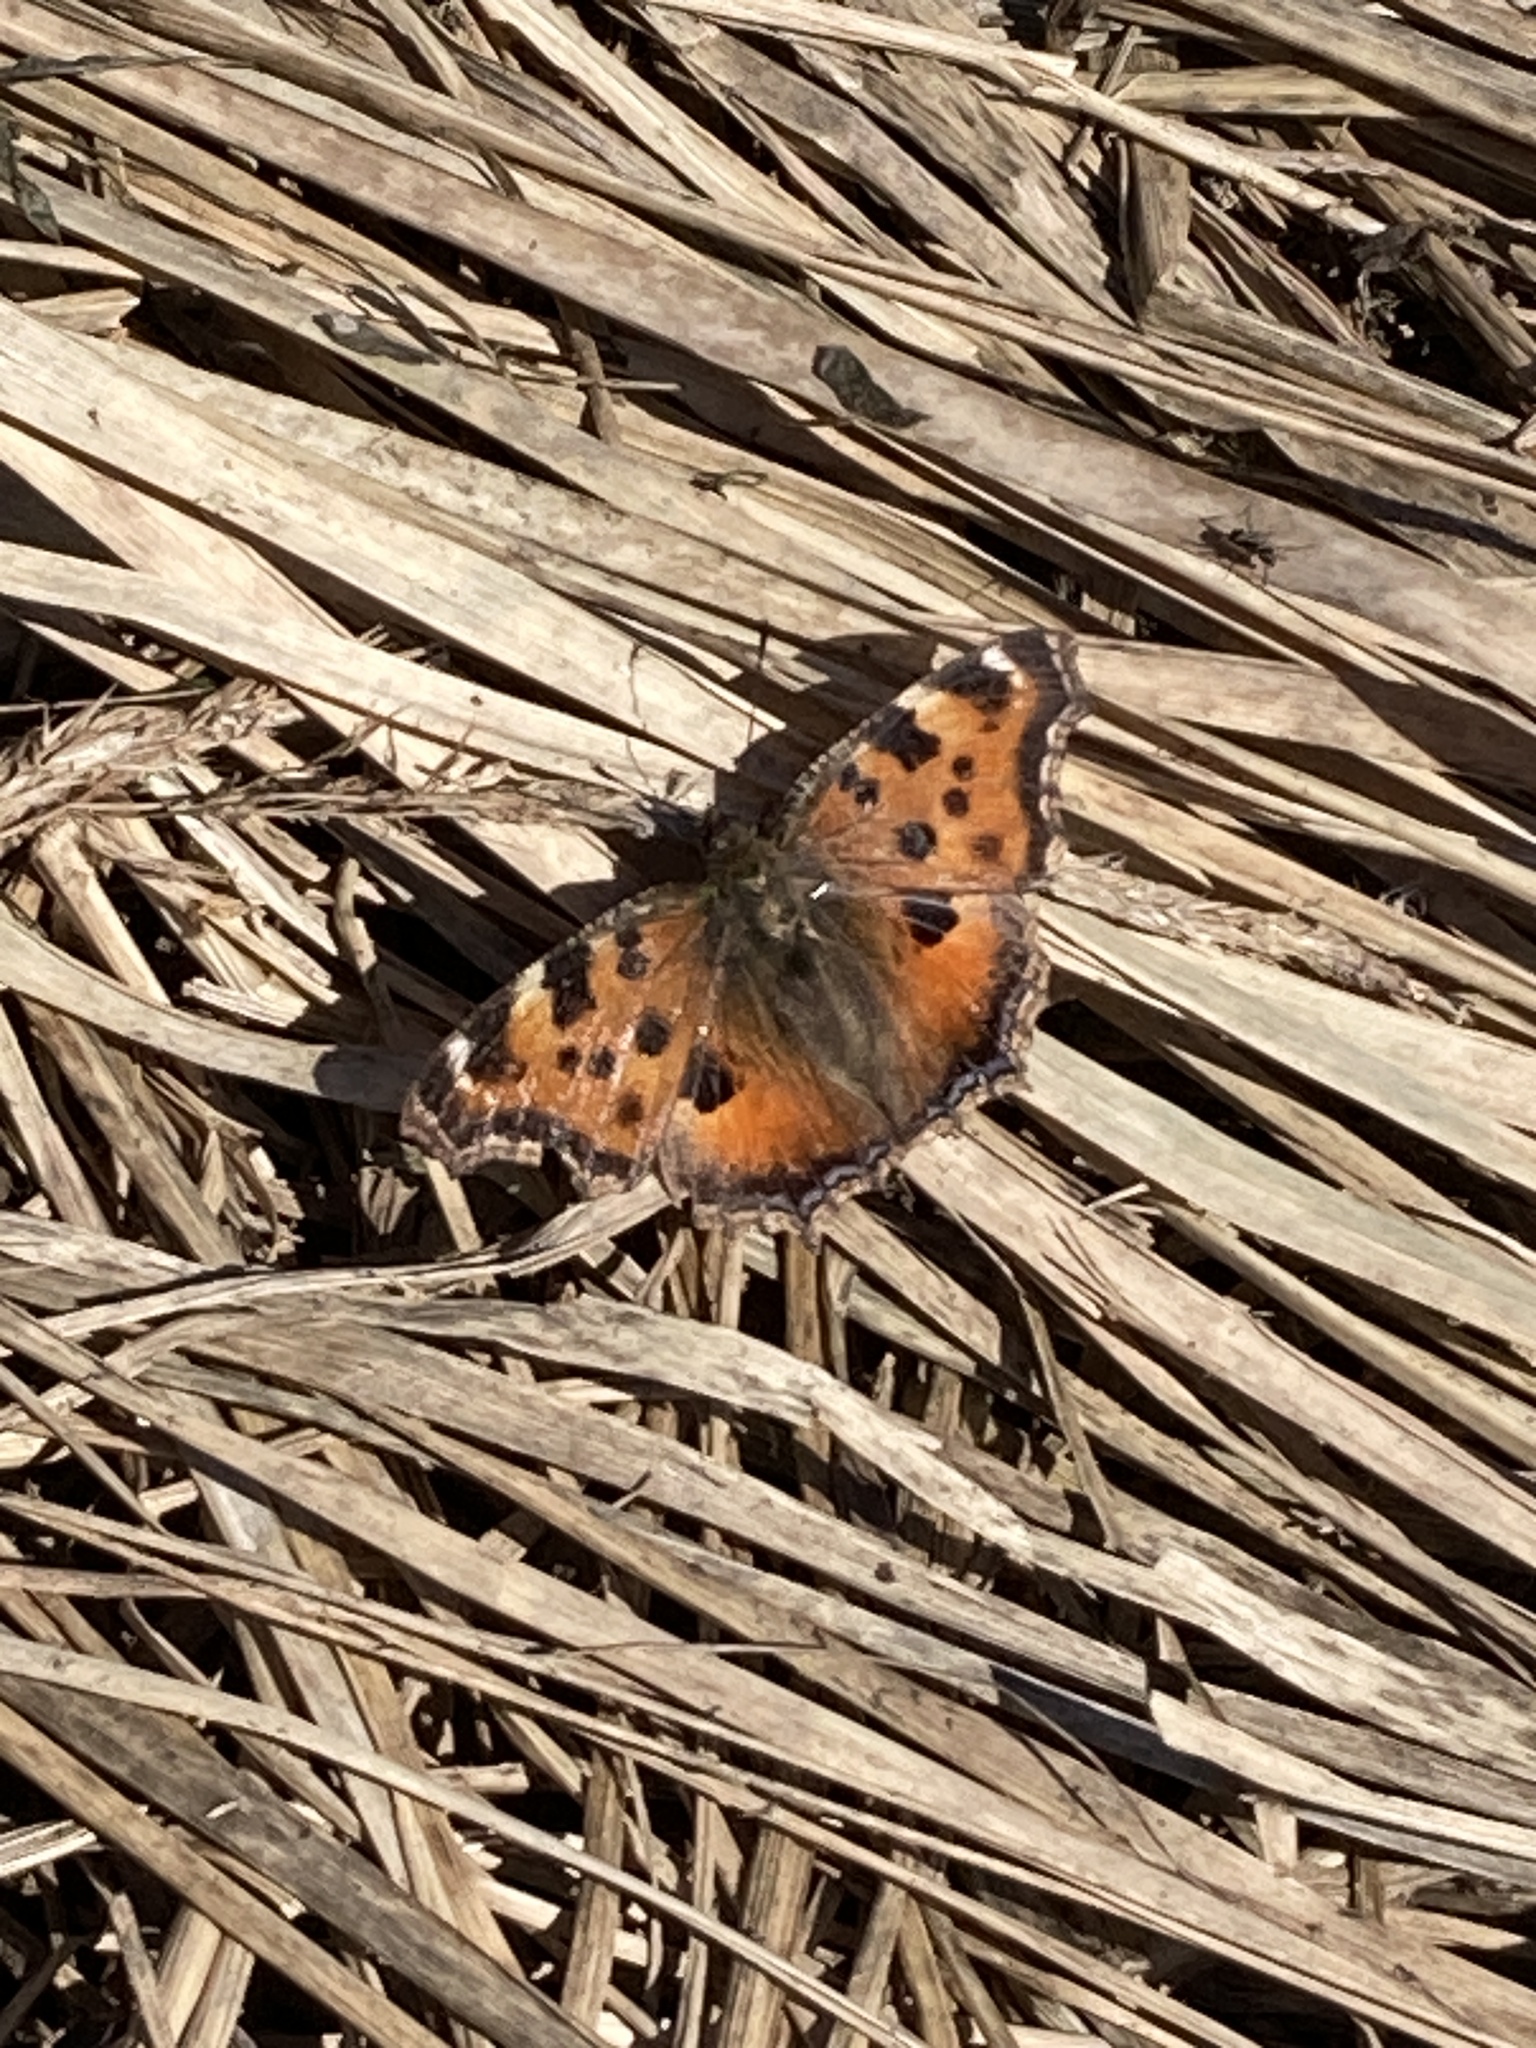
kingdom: Animalia
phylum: Arthropoda
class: Insecta
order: Lepidoptera
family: Nymphalidae
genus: Nymphalis
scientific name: Nymphalis xanthomelas
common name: Scarce tortoiseshell
